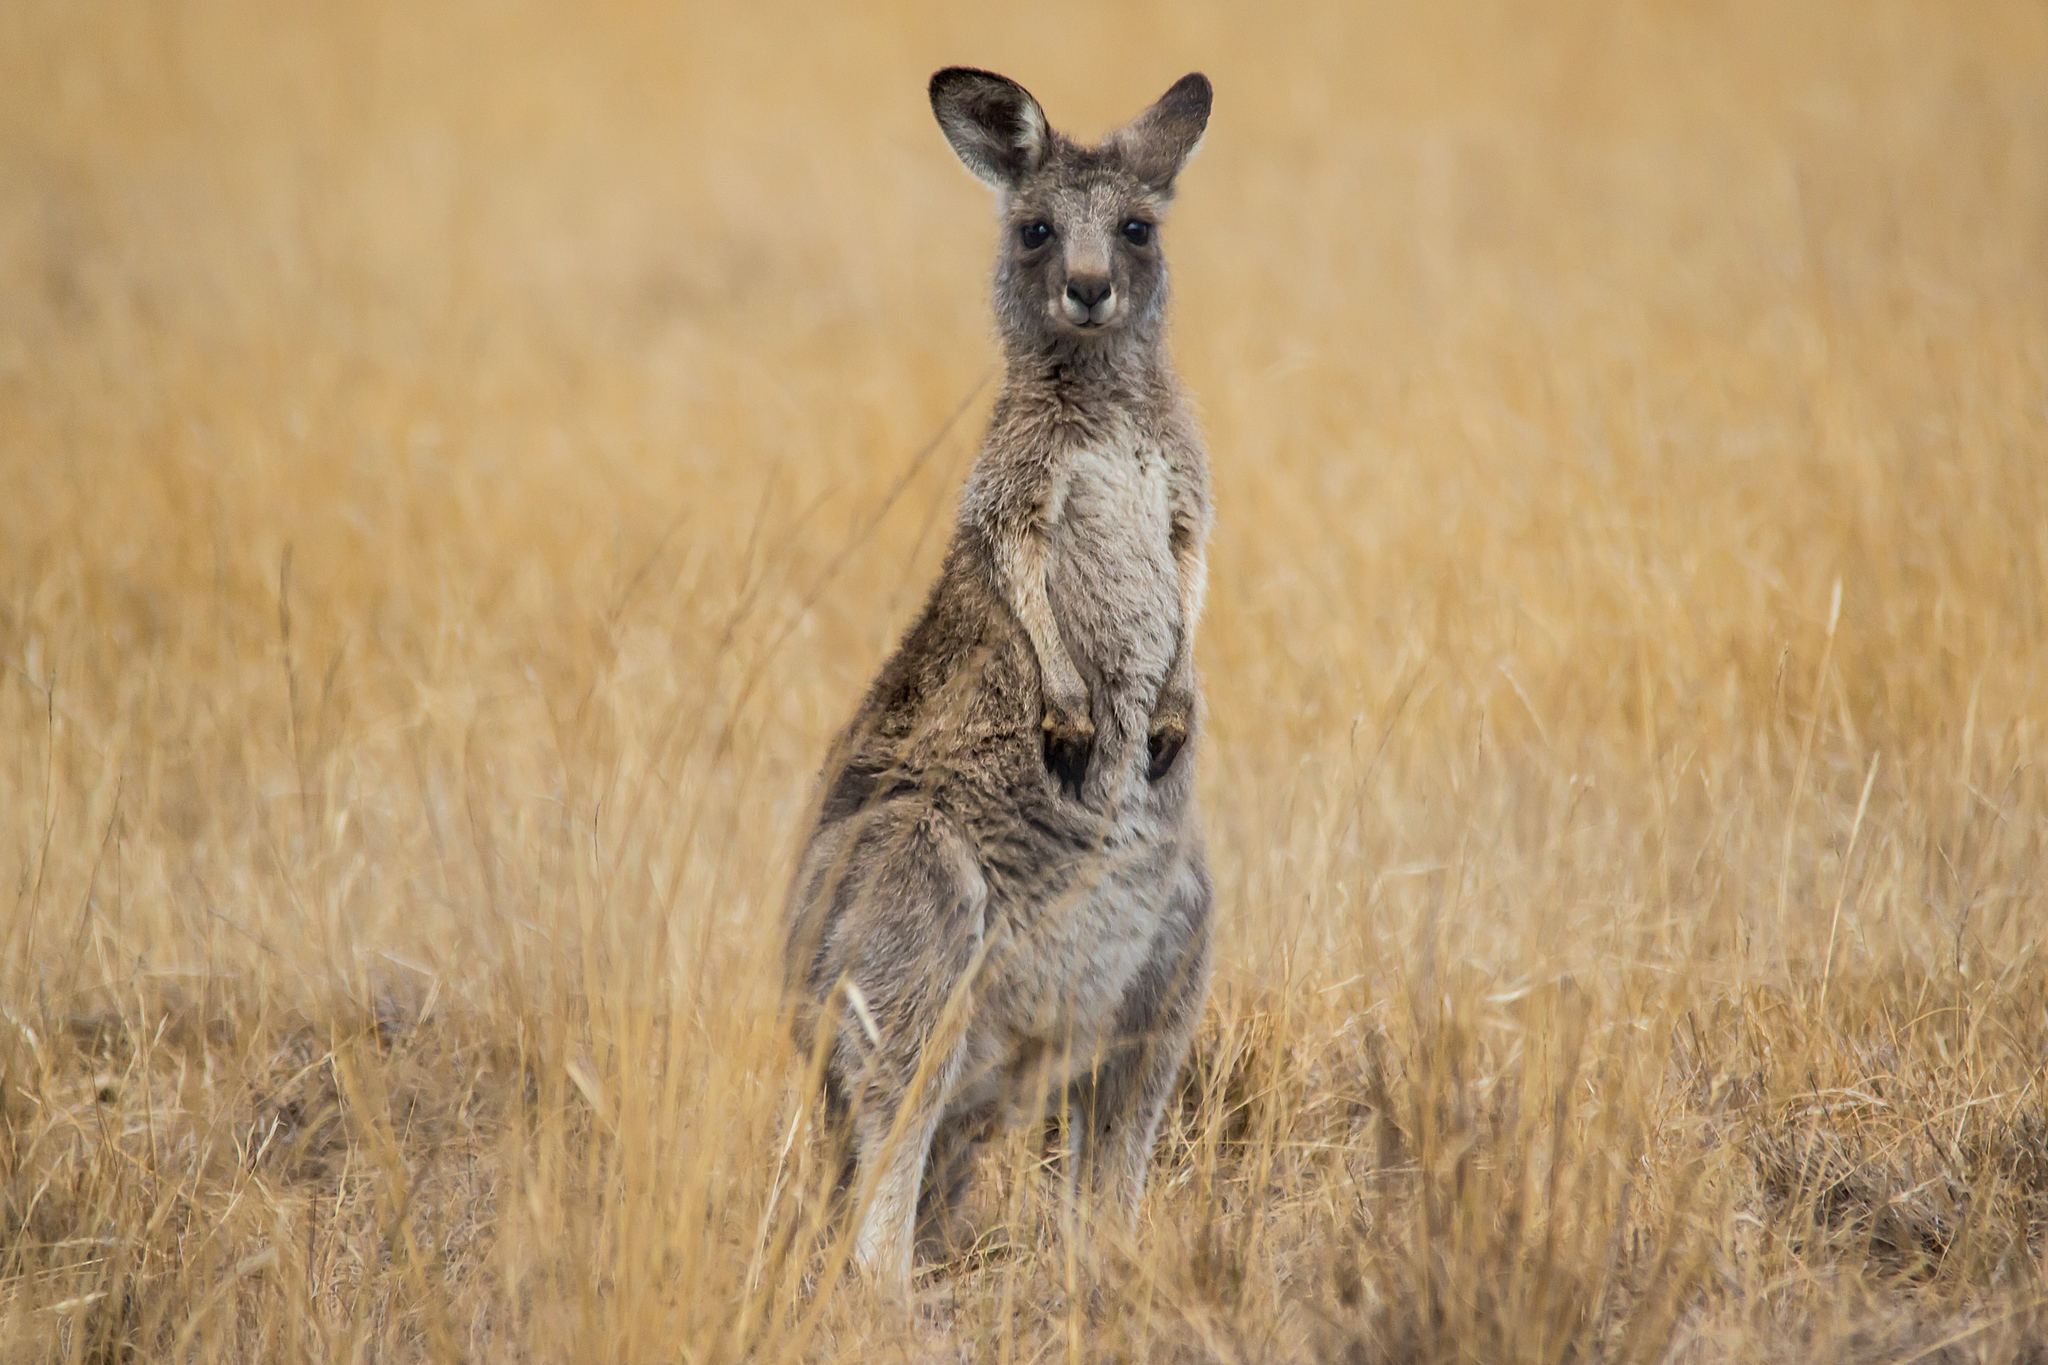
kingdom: Animalia
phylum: Chordata
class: Mammalia
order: Diprotodontia
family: Macropodidae
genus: Macropus
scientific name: Macropus giganteus
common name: Eastern grey kangaroo
